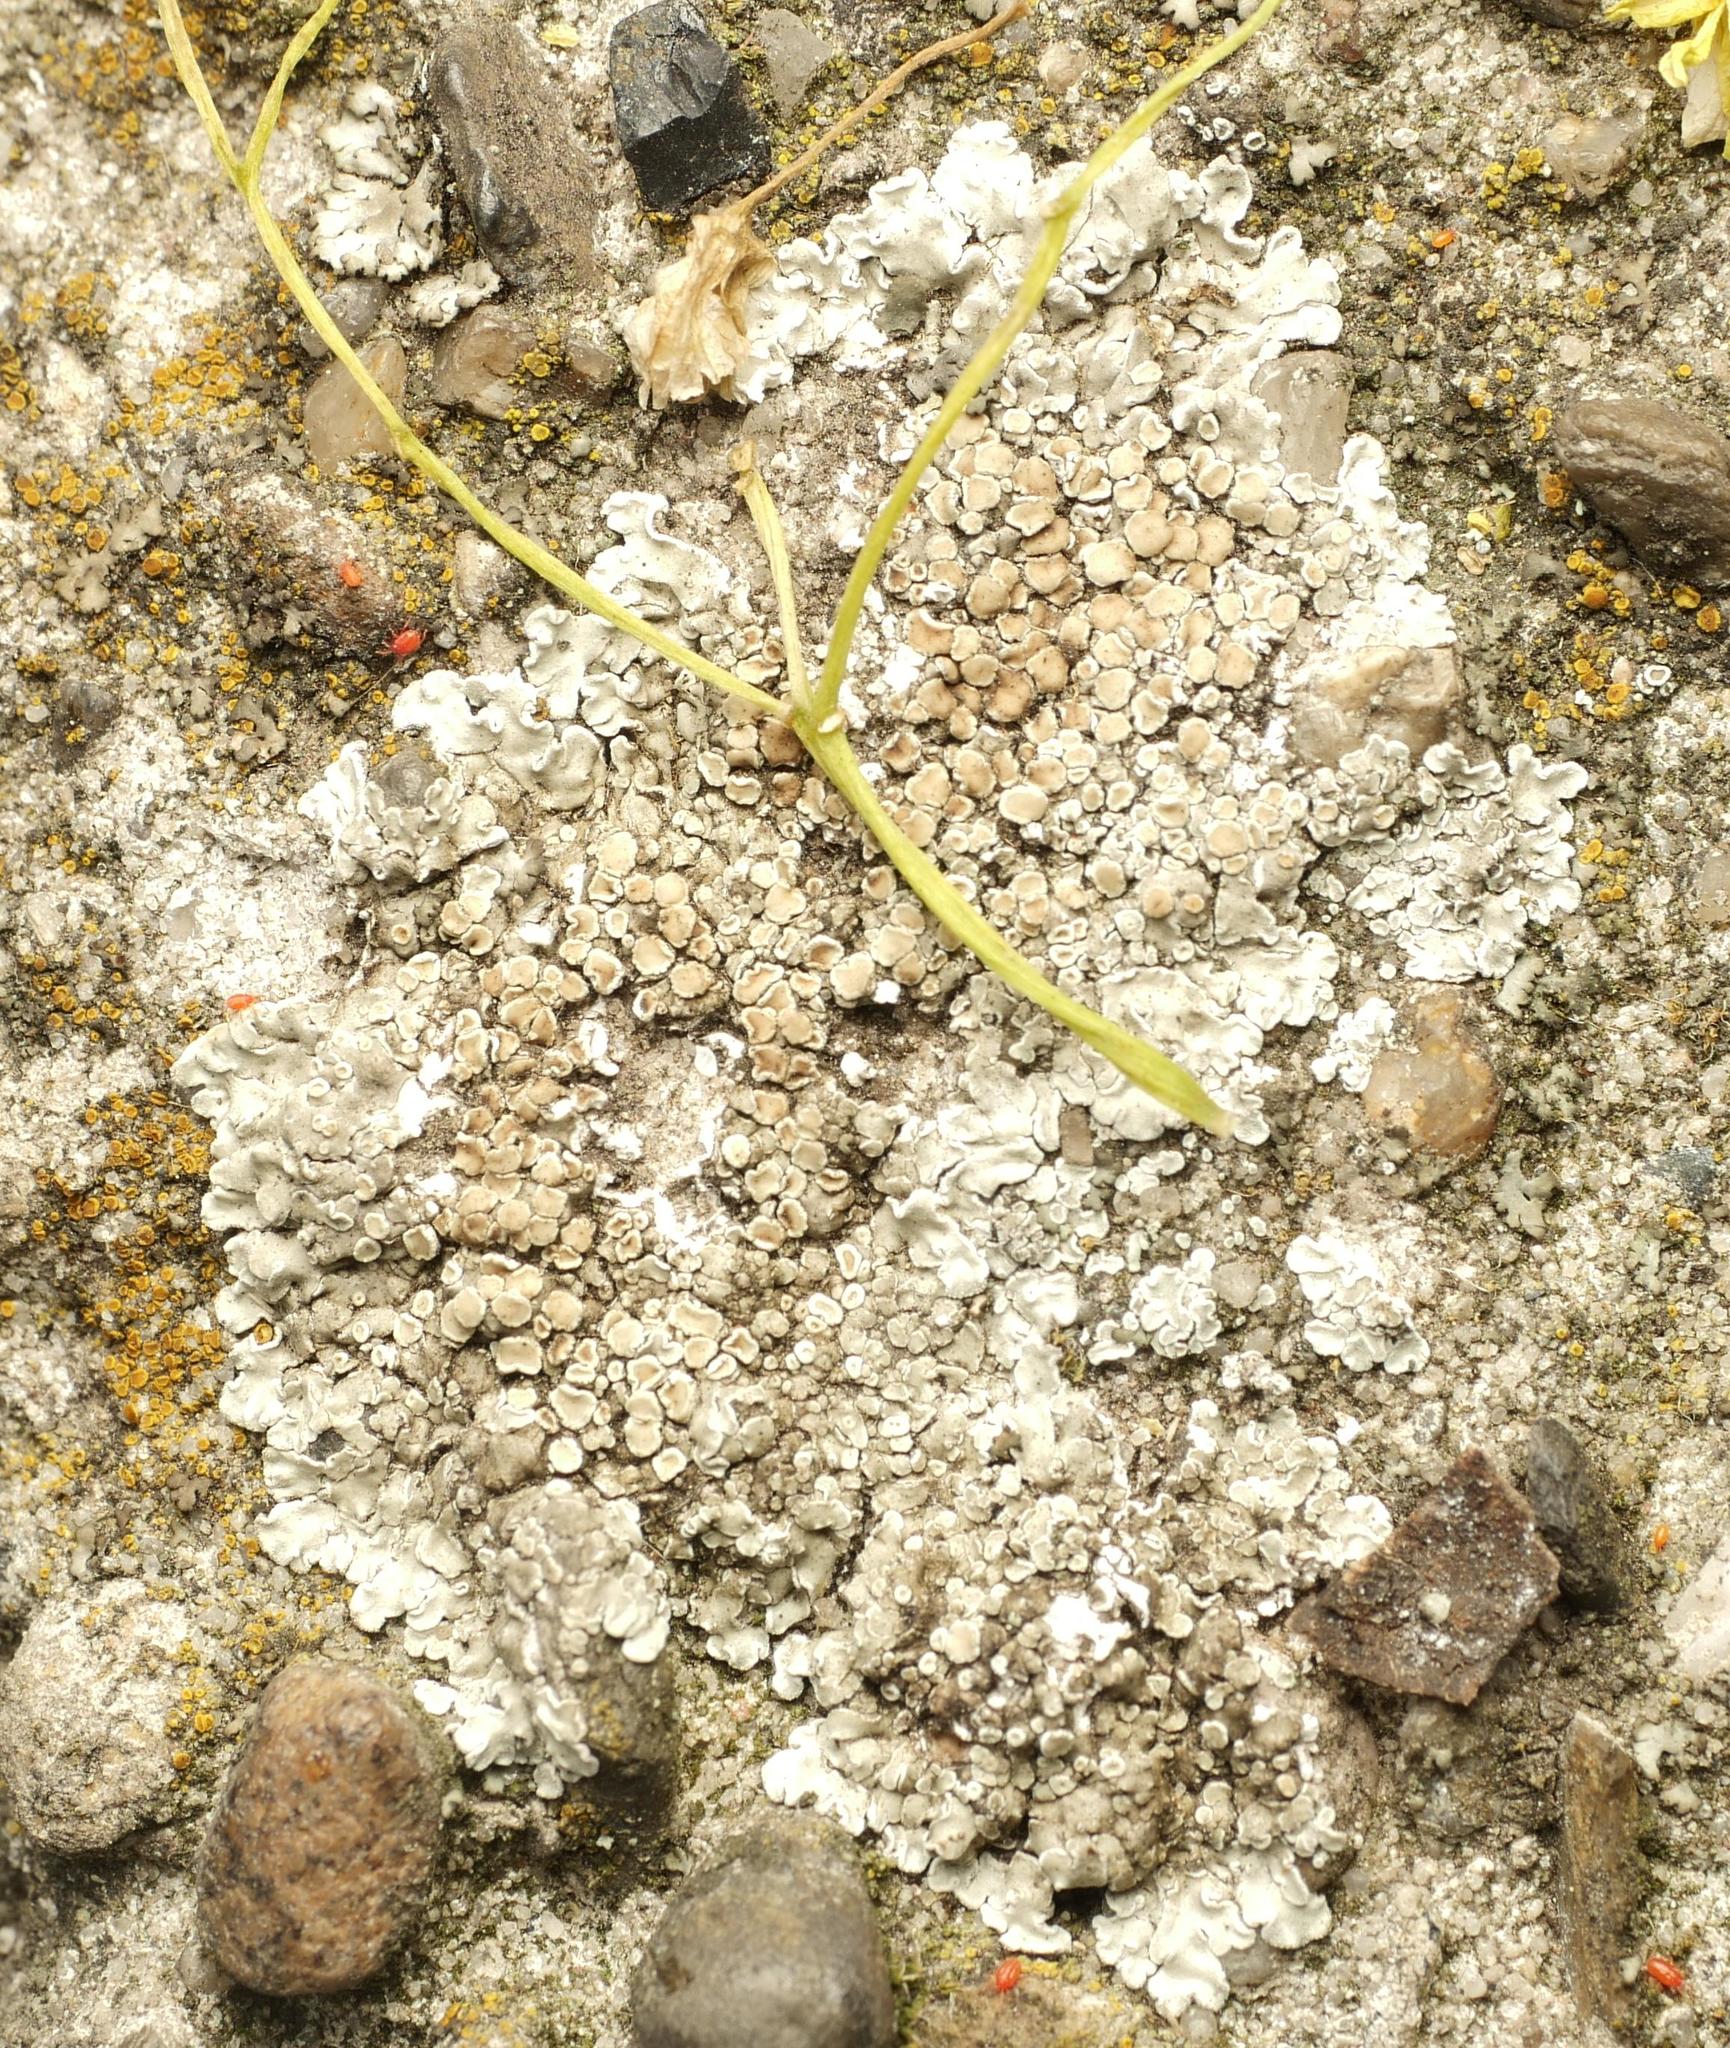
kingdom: Fungi
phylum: Ascomycota
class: Lecanoromycetes
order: Lecanorales
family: Lecanoraceae
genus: Protoparmeliopsis
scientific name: Protoparmeliopsis muralis
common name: Stonewall rim lichen
